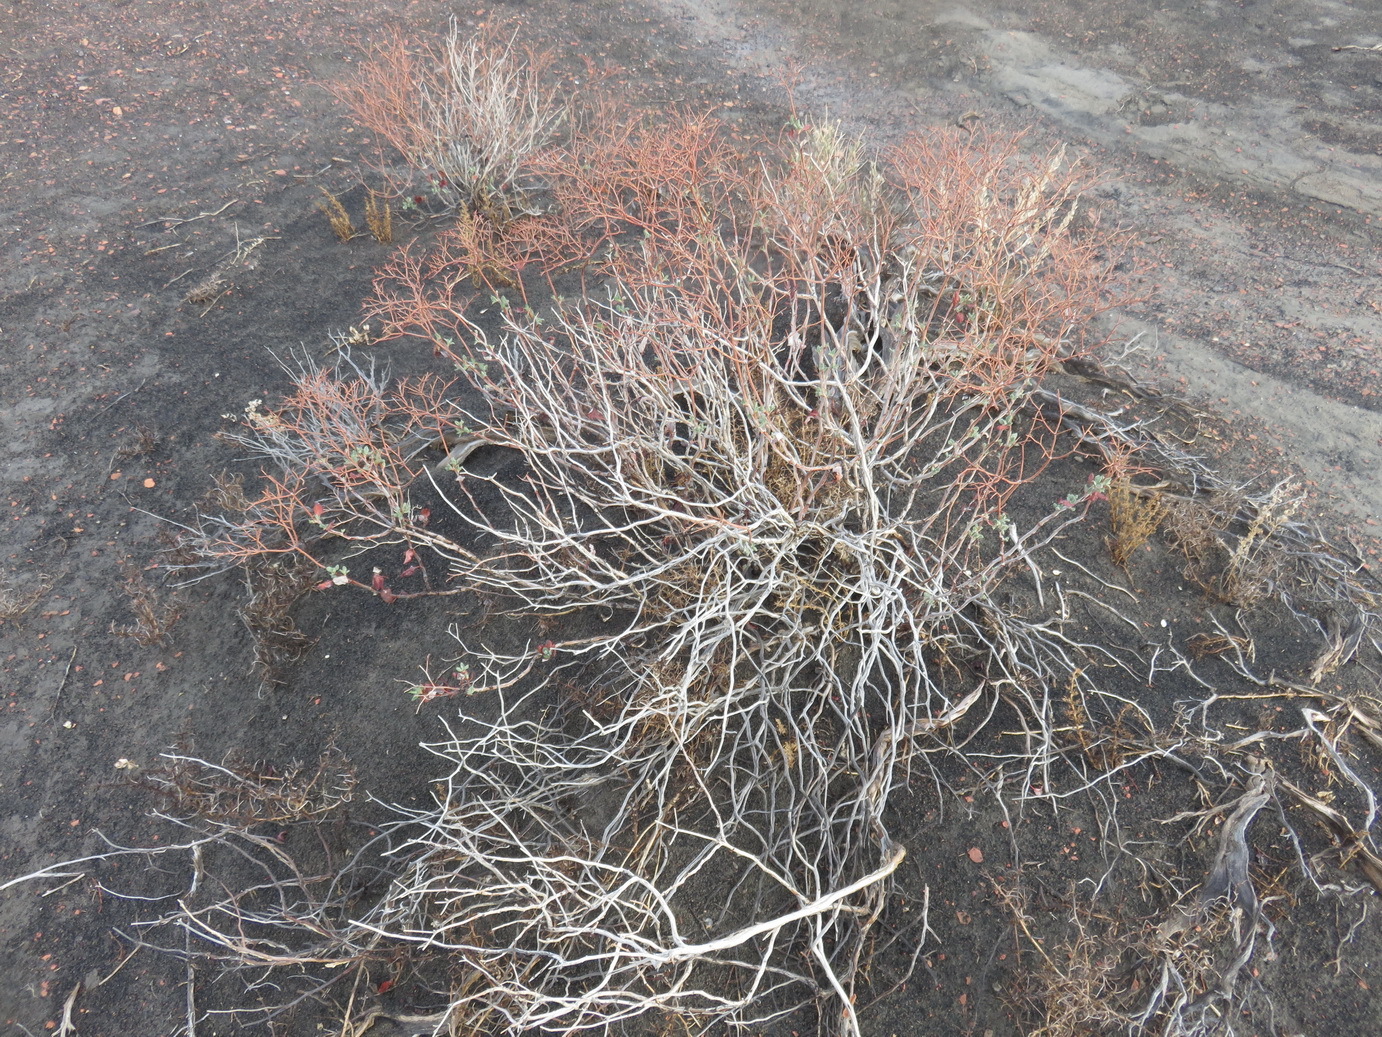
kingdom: Plantae
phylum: Tracheophyta
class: Magnoliopsida
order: Caryophyllales
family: Polygonaceae
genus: Eriogonum
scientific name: Eriogonum corymbosum
